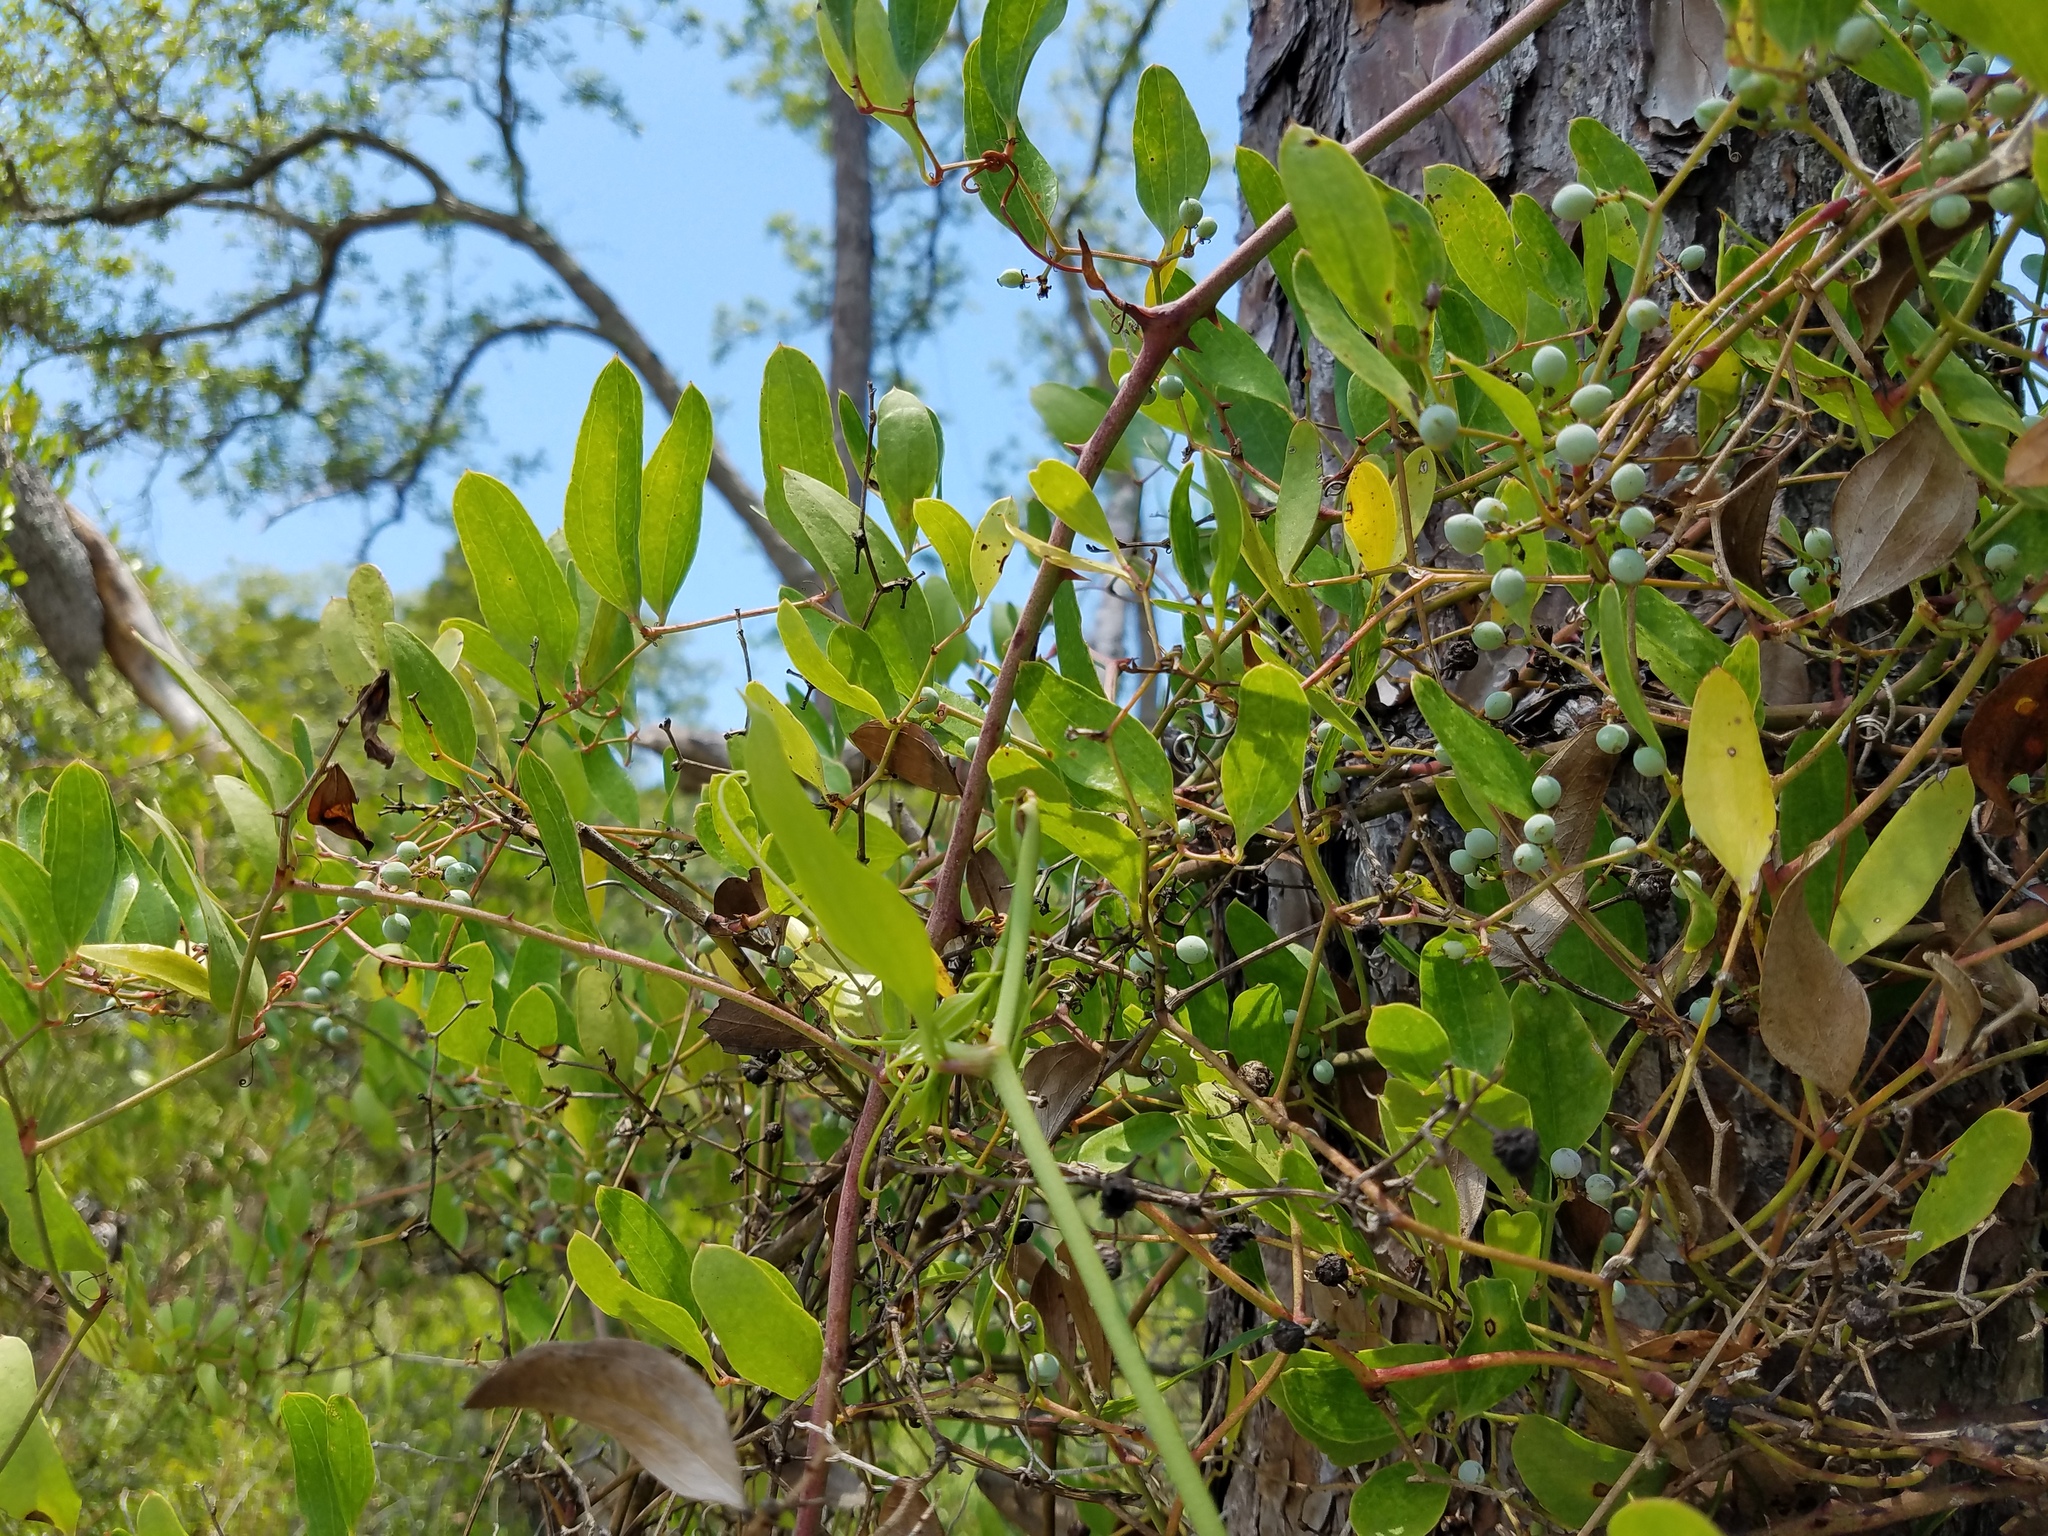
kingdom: Plantae
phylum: Tracheophyta
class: Liliopsida
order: Liliales
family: Smilacaceae
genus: Smilax
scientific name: Smilax auriculata
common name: Wild bamboo
